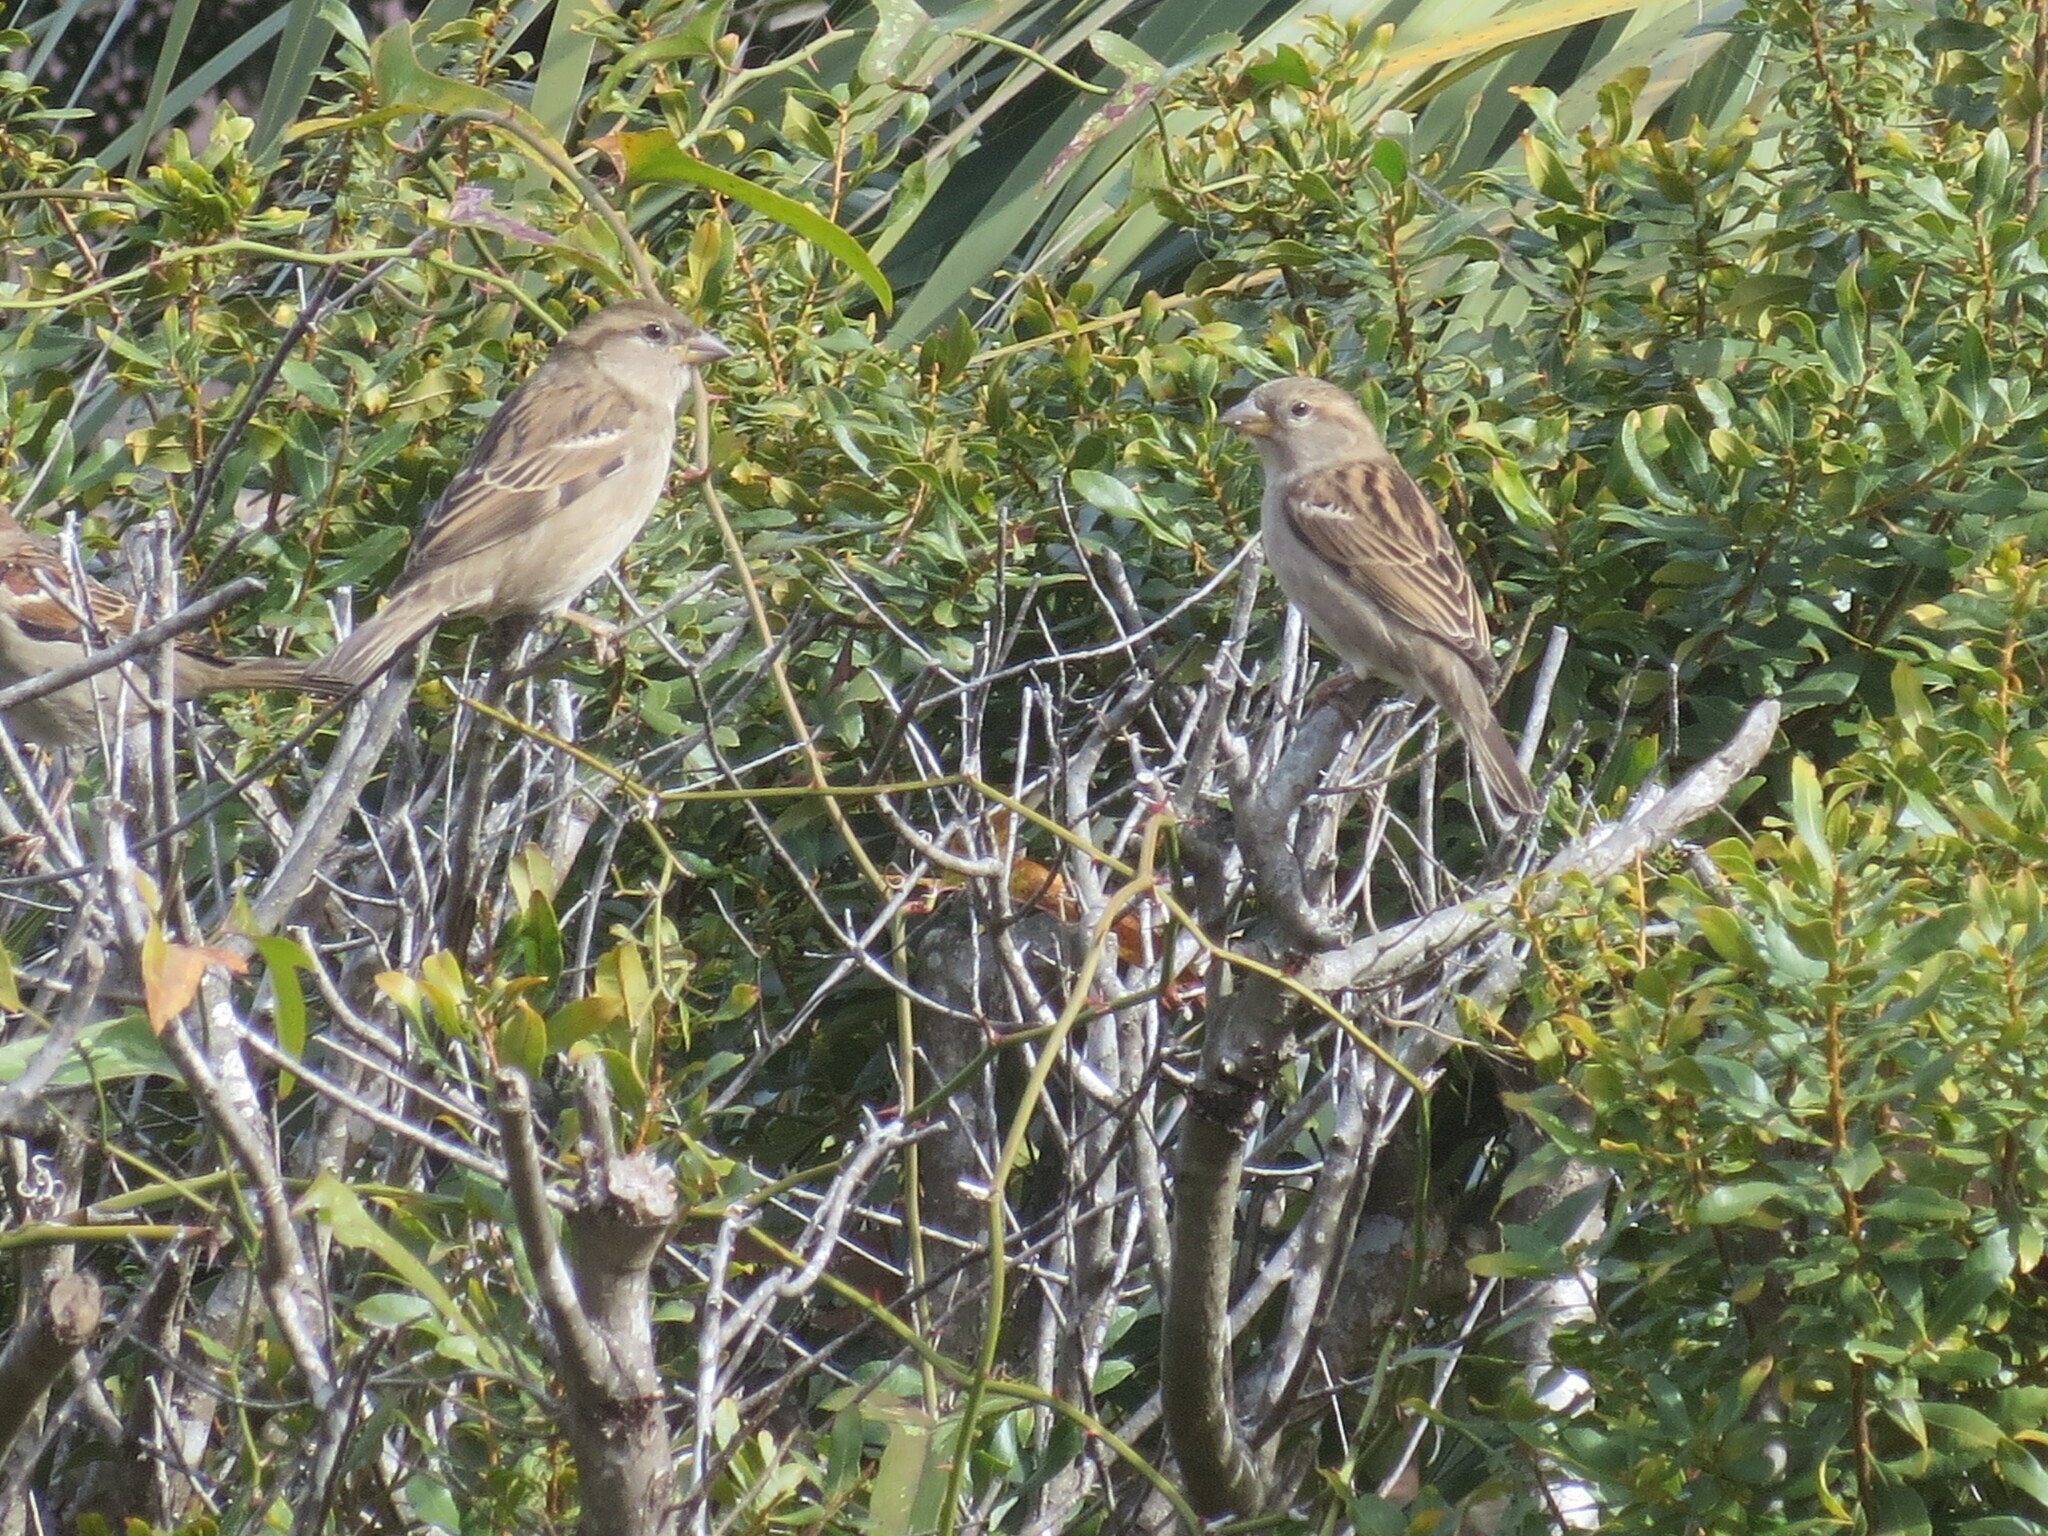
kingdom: Animalia
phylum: Chordata
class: Aves
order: Passeriformes
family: Passeridae
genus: Passer
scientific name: Passer domesticus
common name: House sparrow
